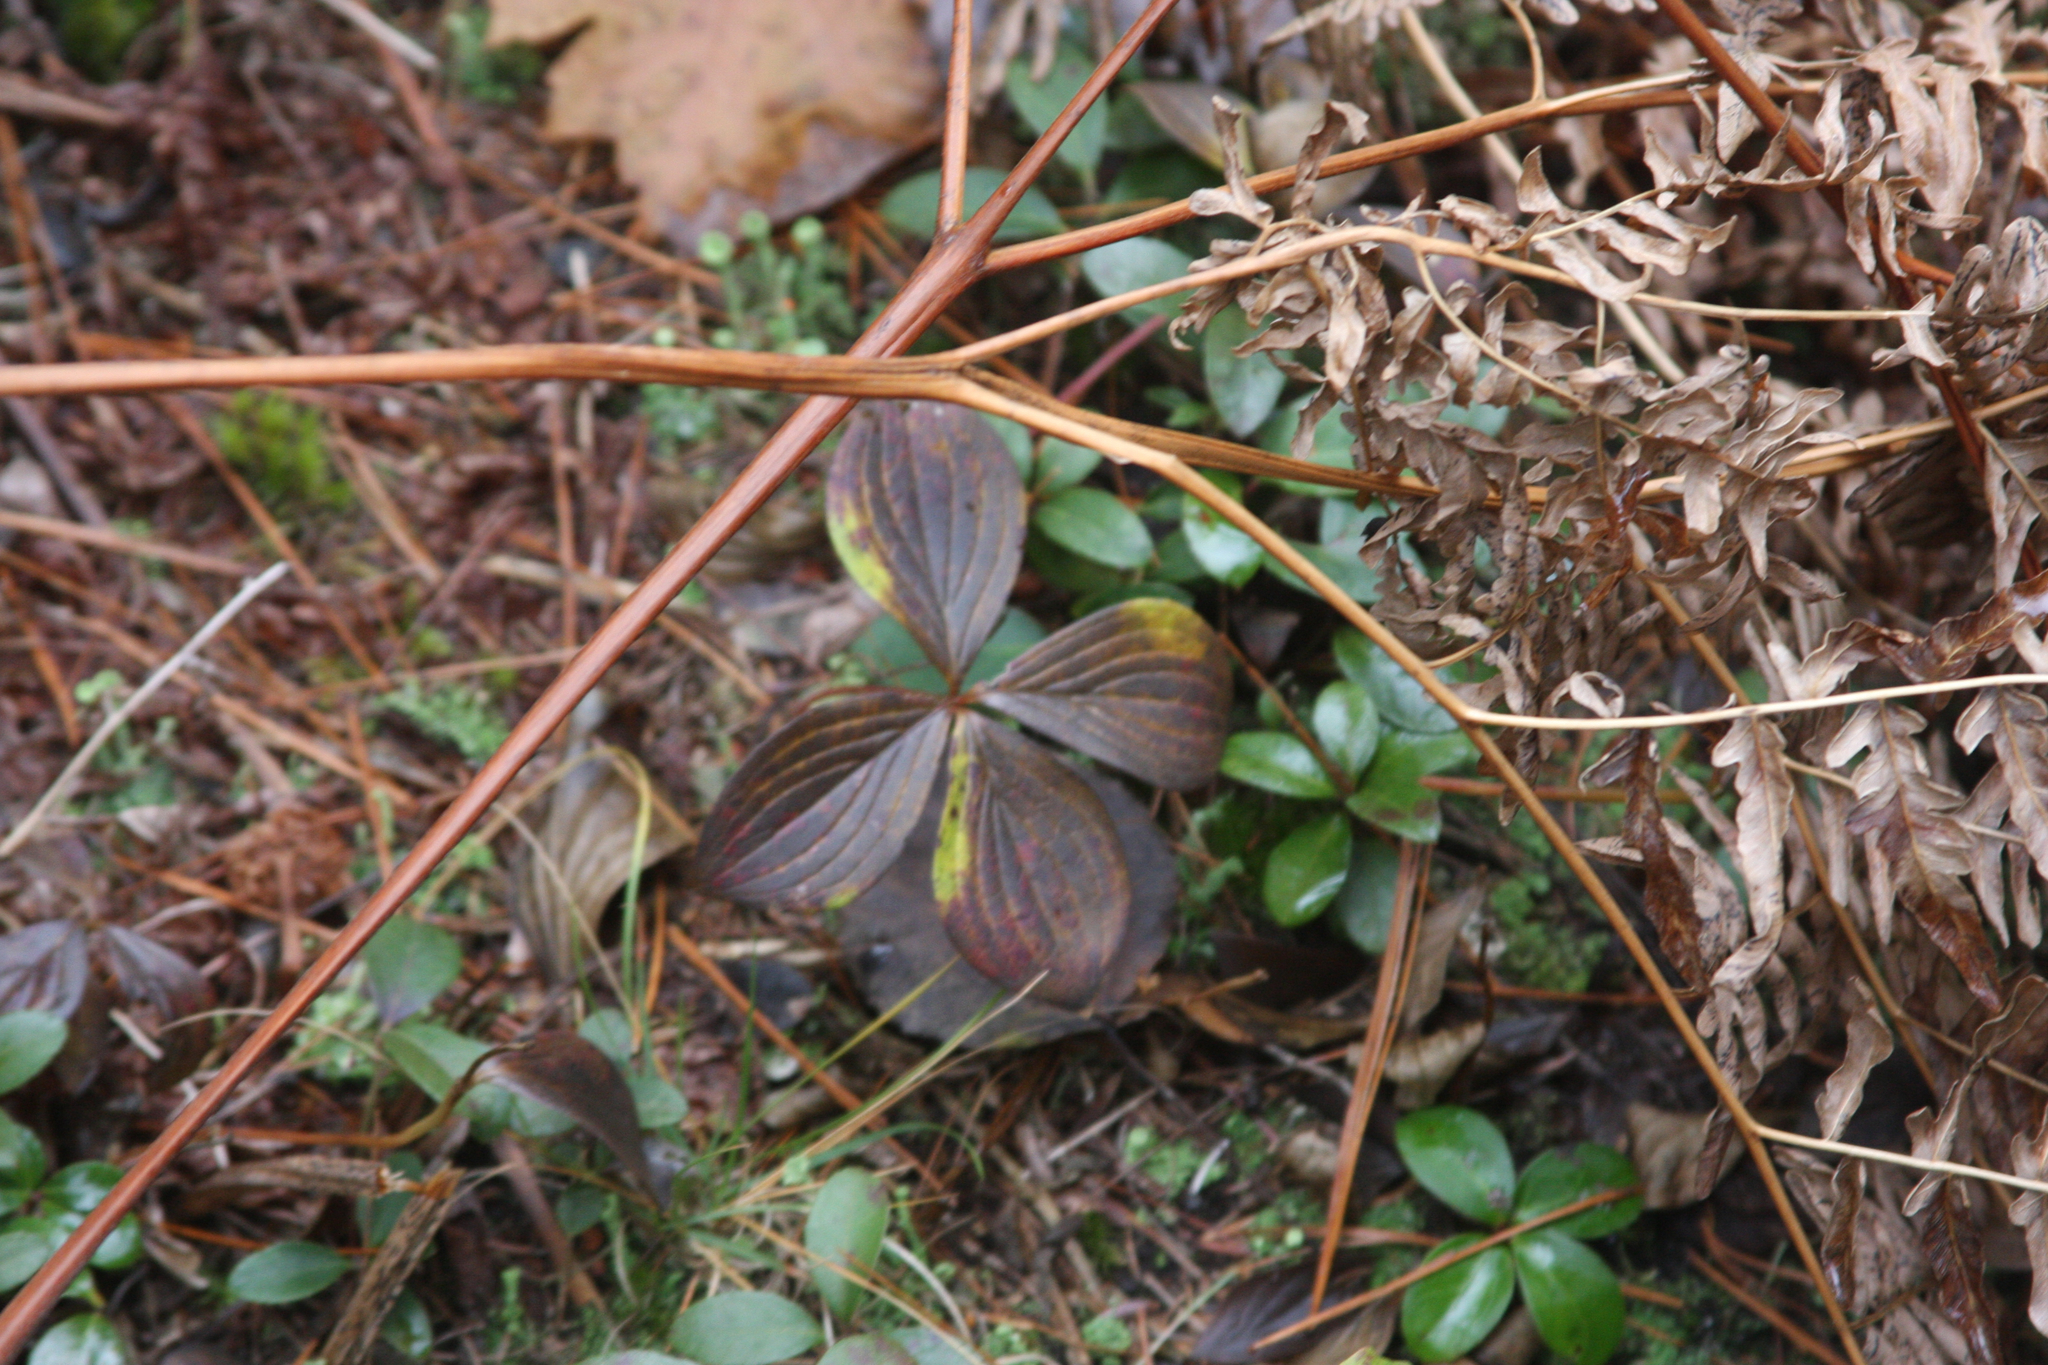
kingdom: Plantae
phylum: Tracheophyta
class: Magnoliopsida
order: Cornales
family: Cornaceae
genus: Cornus
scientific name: Cornus canadensis
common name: Creeping dogwood
